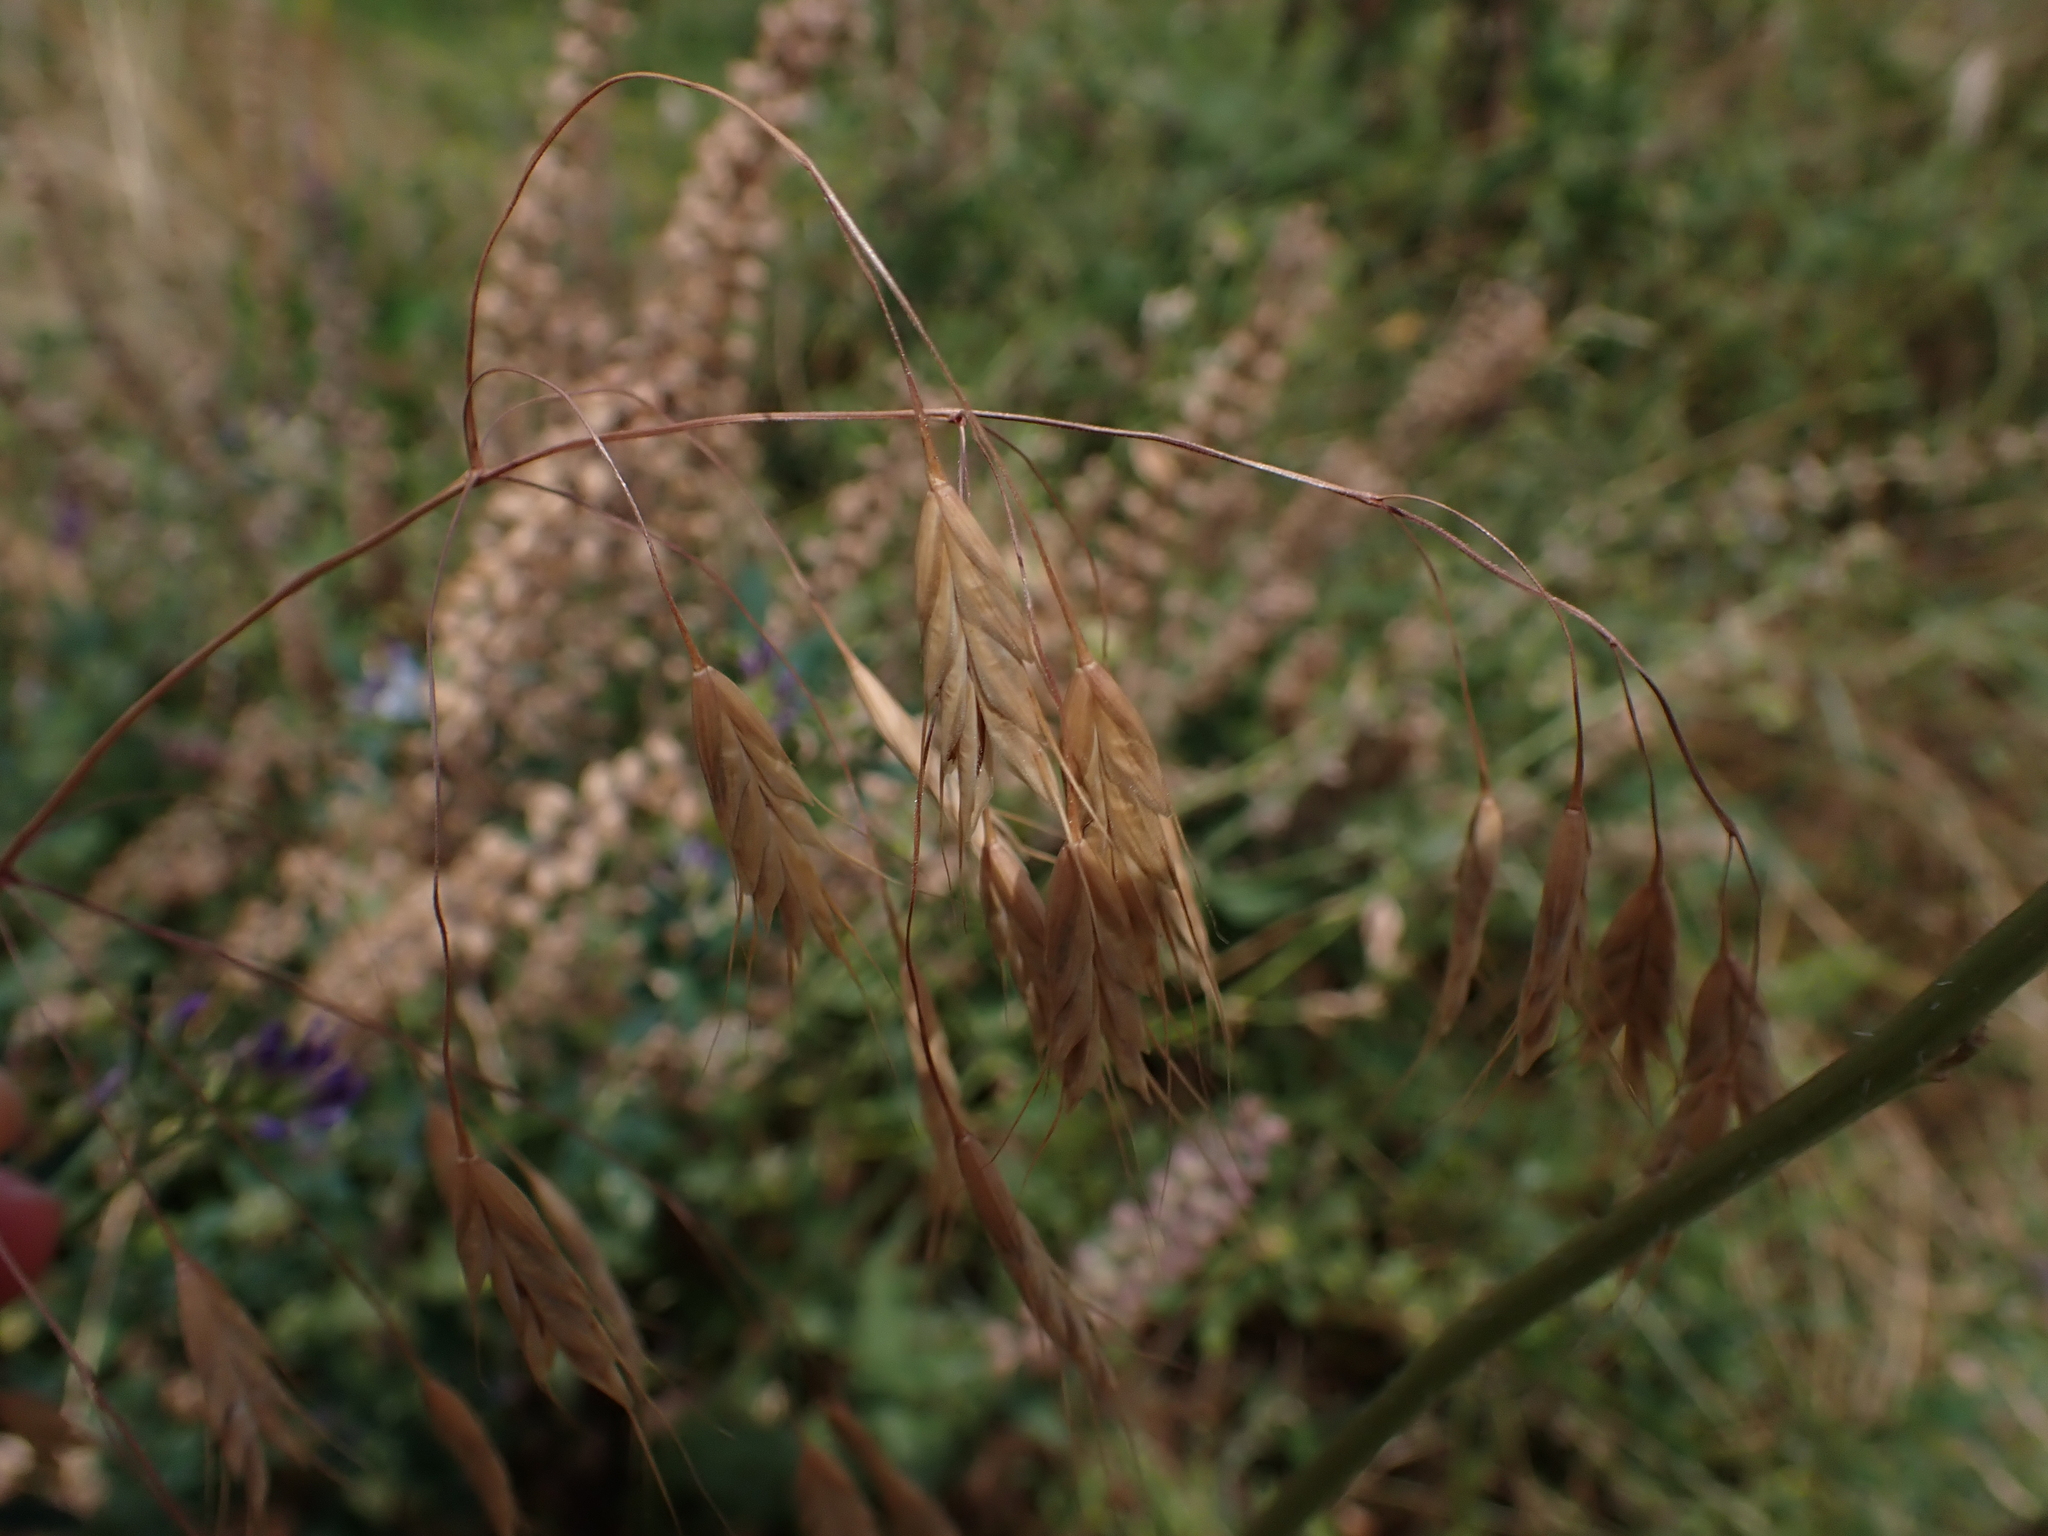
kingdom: Plantae
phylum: Tracheophyta
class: Liliopsida
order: Poales
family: Poaceae
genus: Bromus
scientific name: Bromus japonicus
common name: Japanese brome
